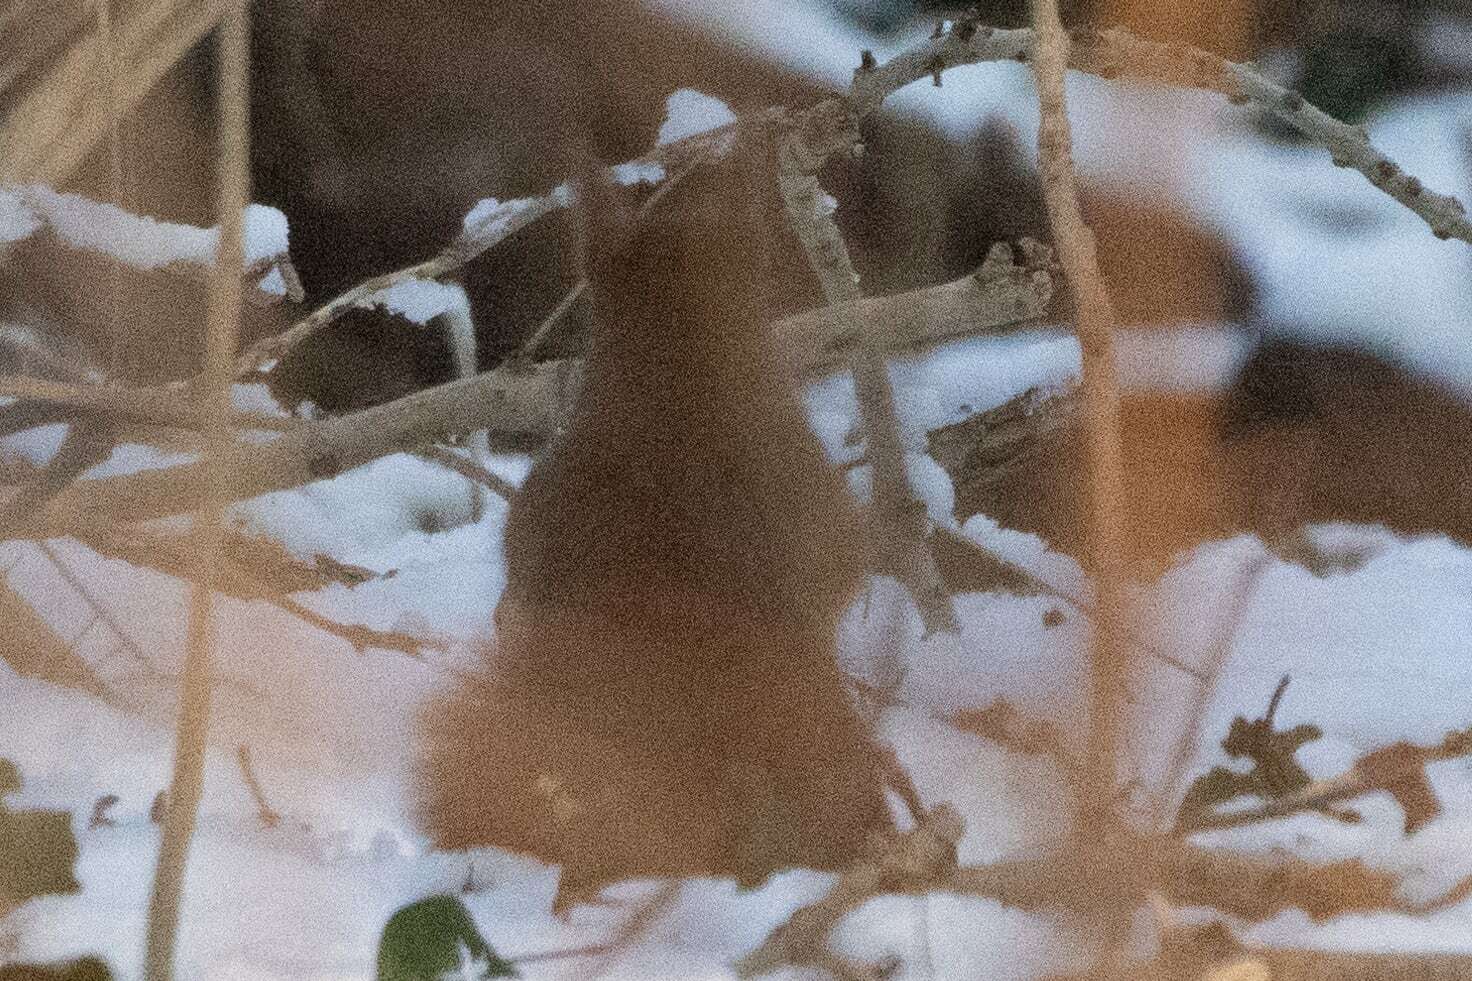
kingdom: Animalia
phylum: Chordata
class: Mammalia
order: Rodentia
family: Sciuridae
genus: Sciurus
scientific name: Sciurus vulgaris
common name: Eurasian red squirrel
